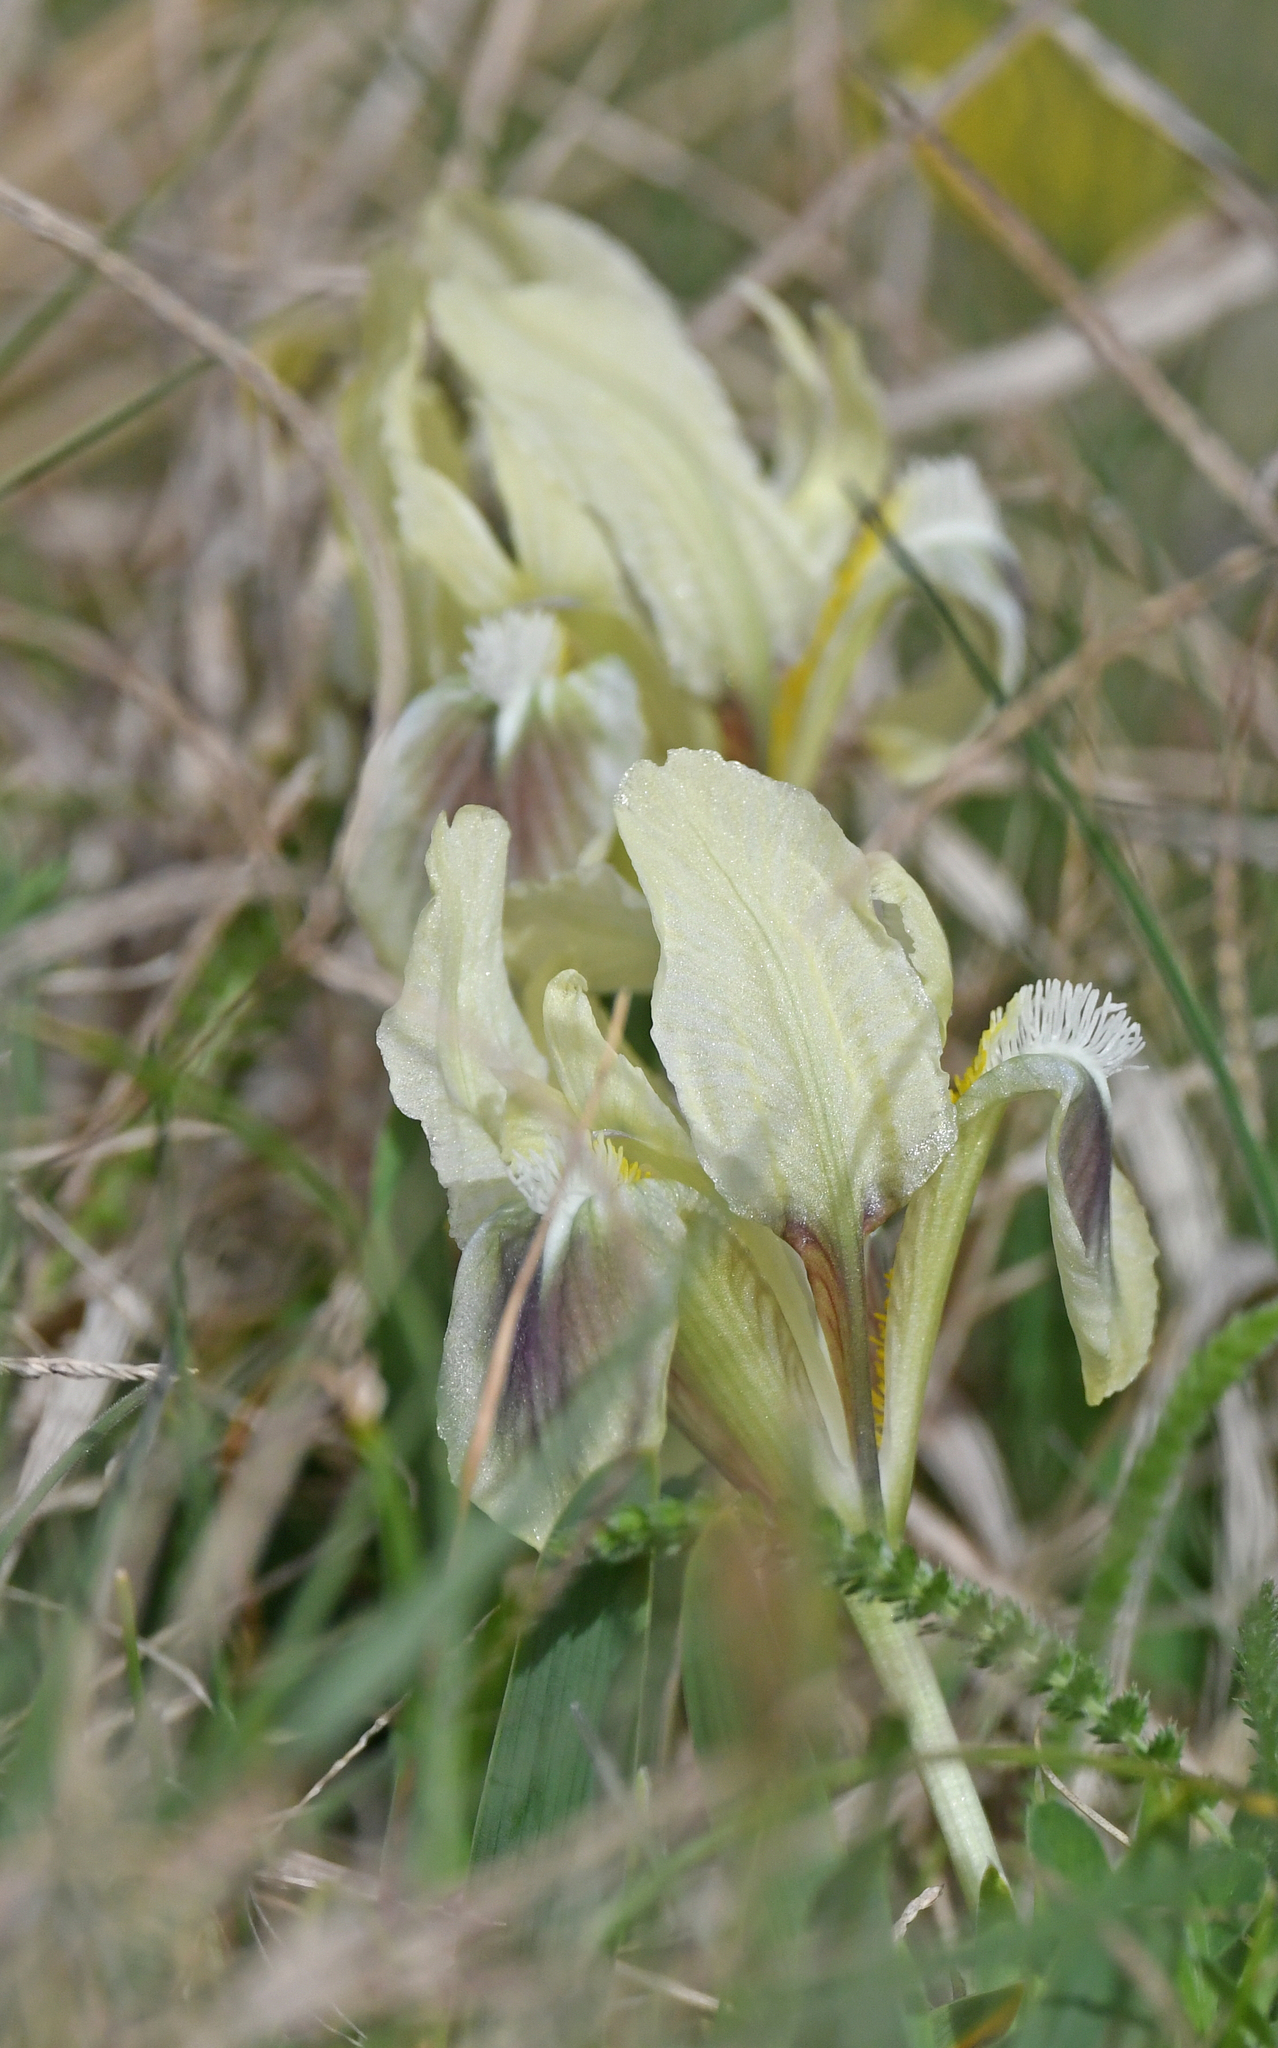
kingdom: Plantae
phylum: Tracheophyta
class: Liliopsida
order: Asparagales
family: Iridaceae
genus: Iris
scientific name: Iris pumila
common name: Dwarf iris
